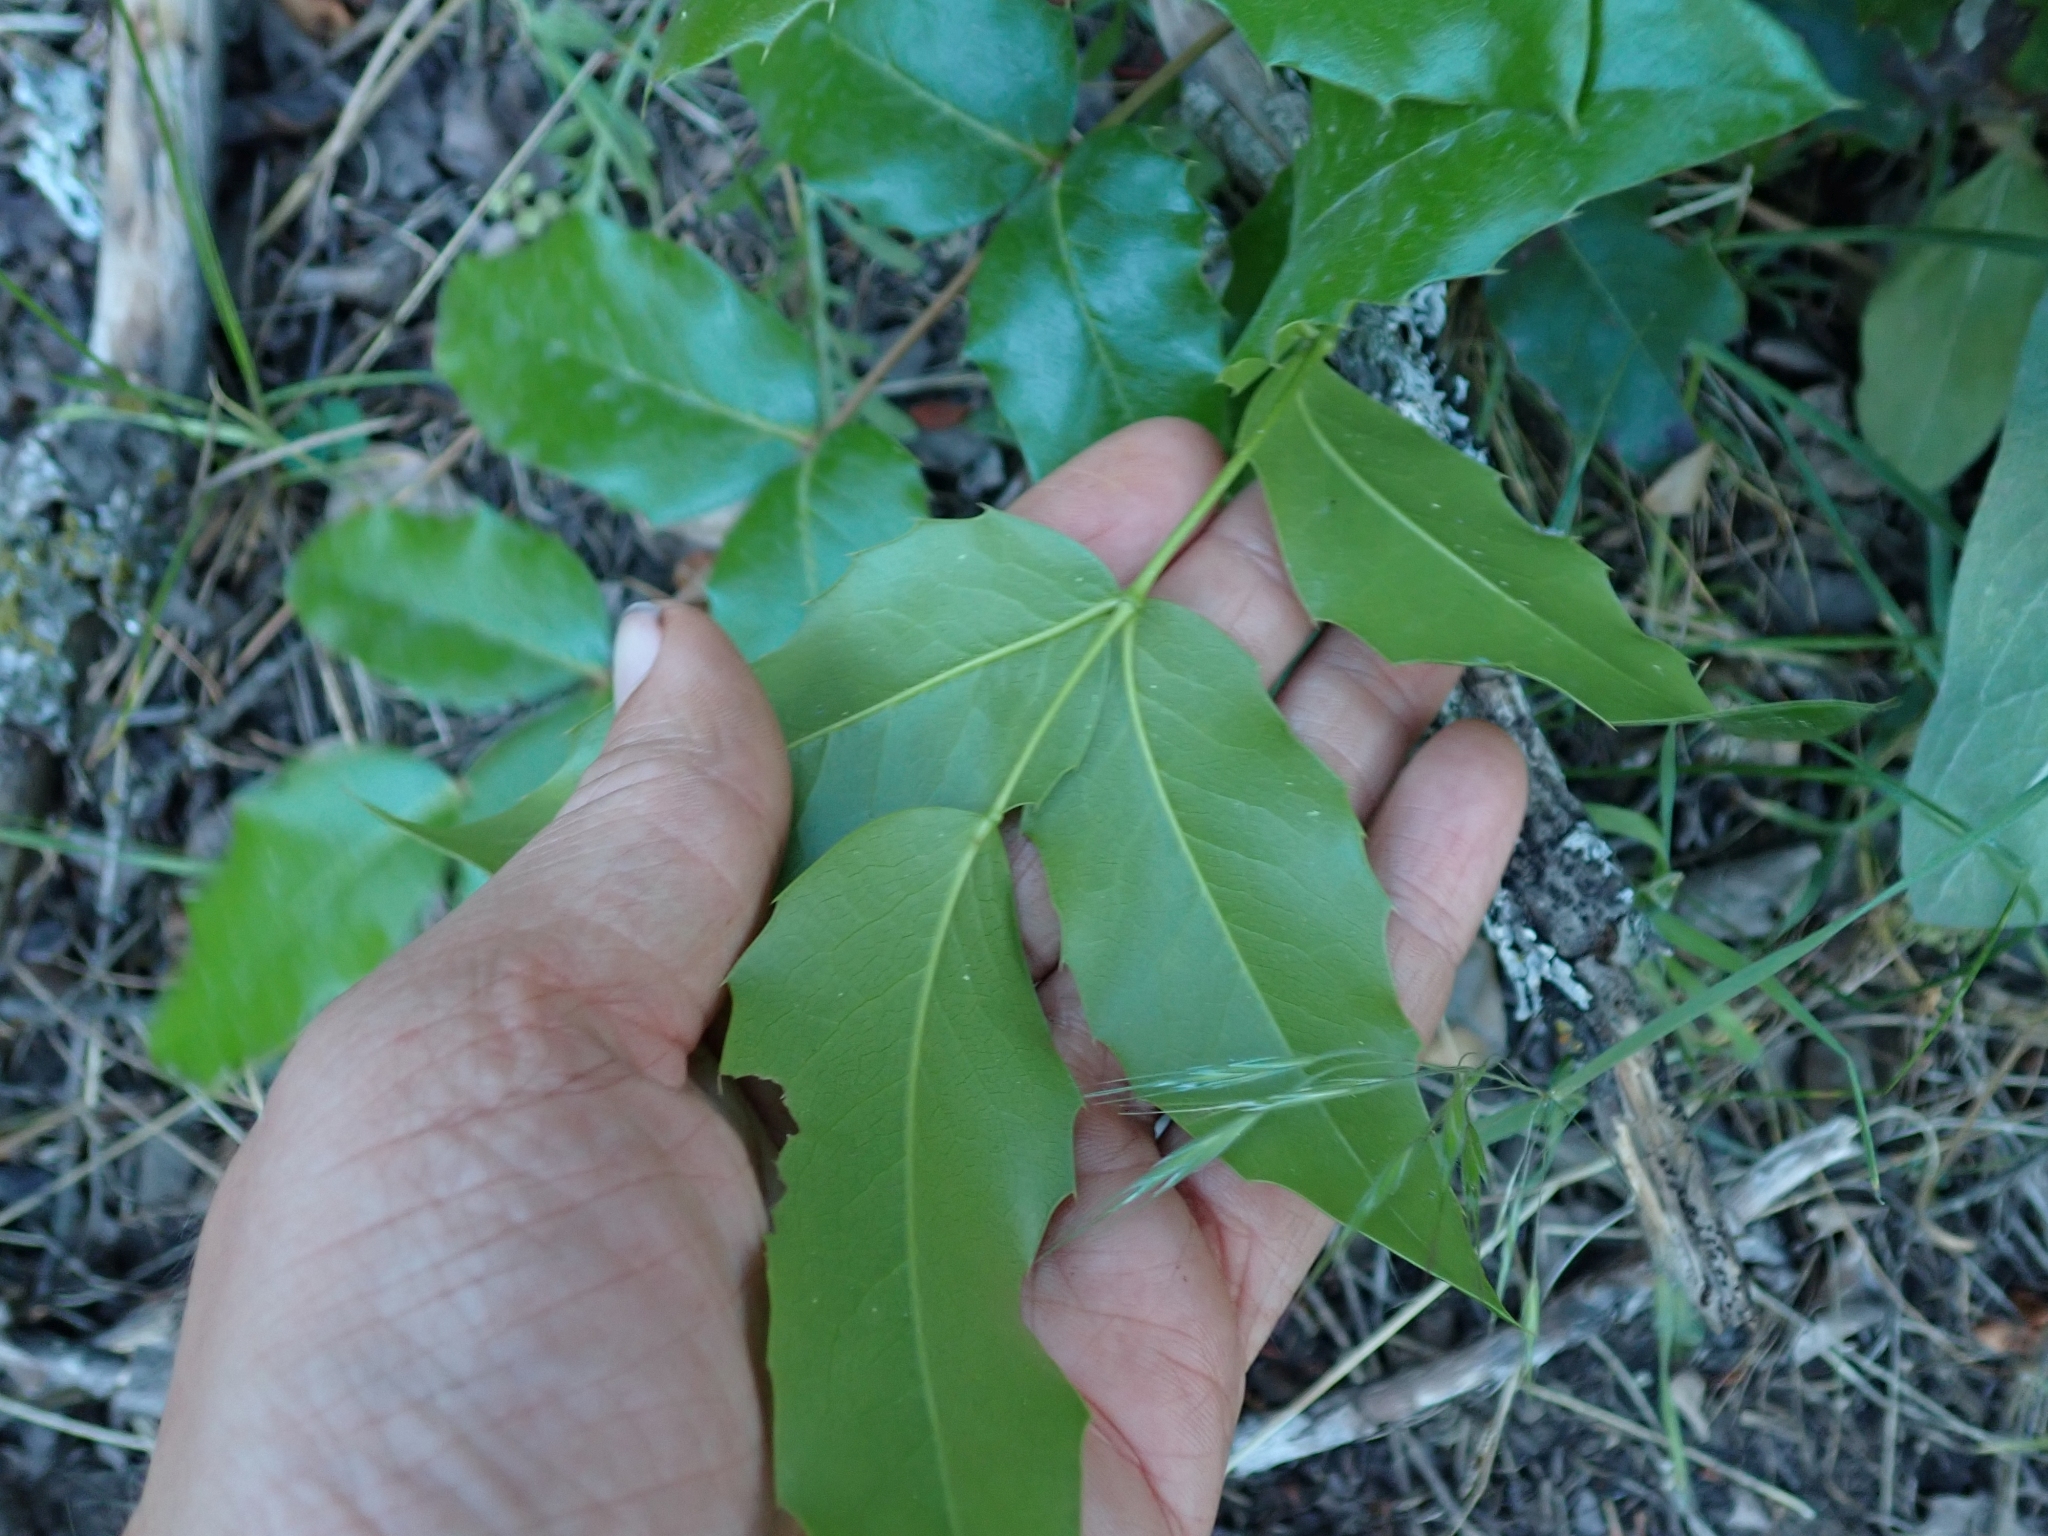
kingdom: Plantae
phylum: Tracheophyta
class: Magnoliopsida
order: Ranunculales
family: Berberidaceae
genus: Mahonia
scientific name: Mahonia aquifolium
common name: Oregon-grape
